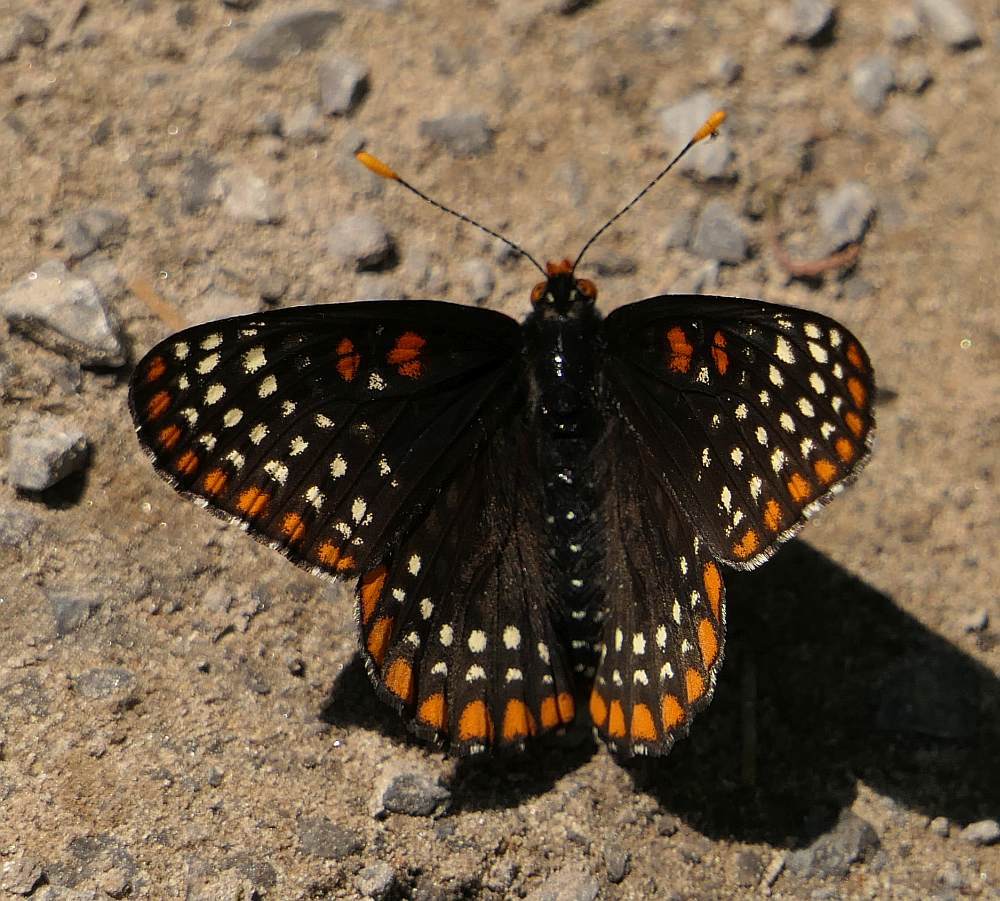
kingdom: Animalia
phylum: Arthropoda
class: Insecta
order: Lepidoptera
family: Nymphalidae
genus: Euphydryas
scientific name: Euphydryas phaeton
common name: Baltimore checkerspot
